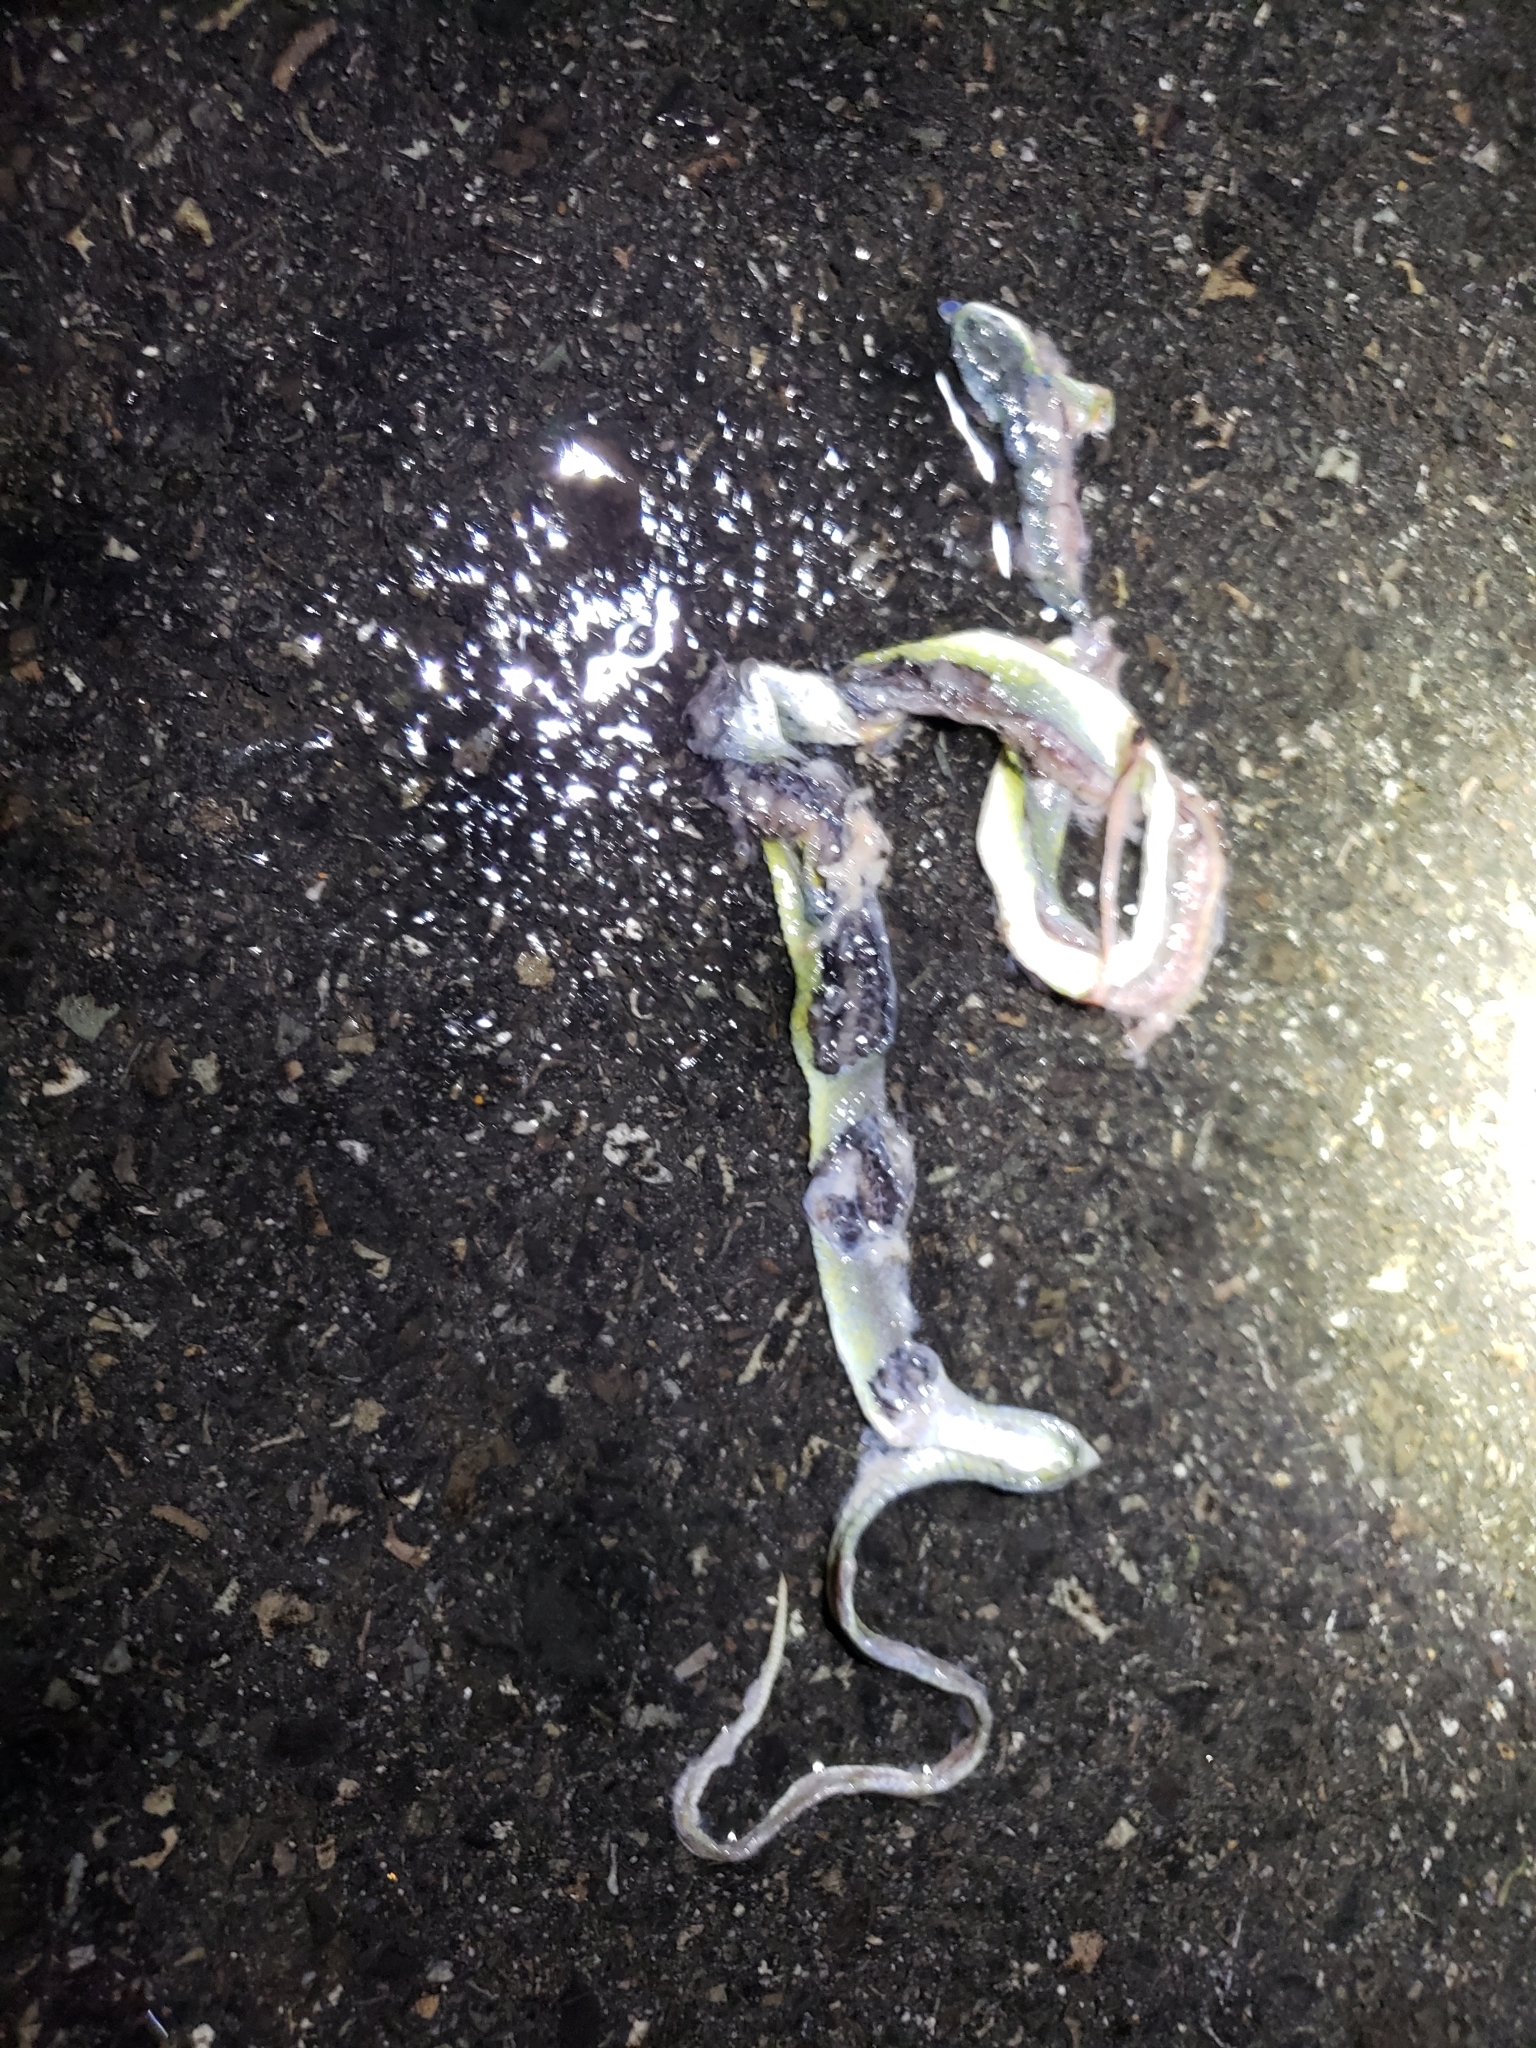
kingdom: Animalia
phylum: Chordata
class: Squamata
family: Colubridae
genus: Opheodrys
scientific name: Opheodrys aestivus
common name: Rough greensnake
